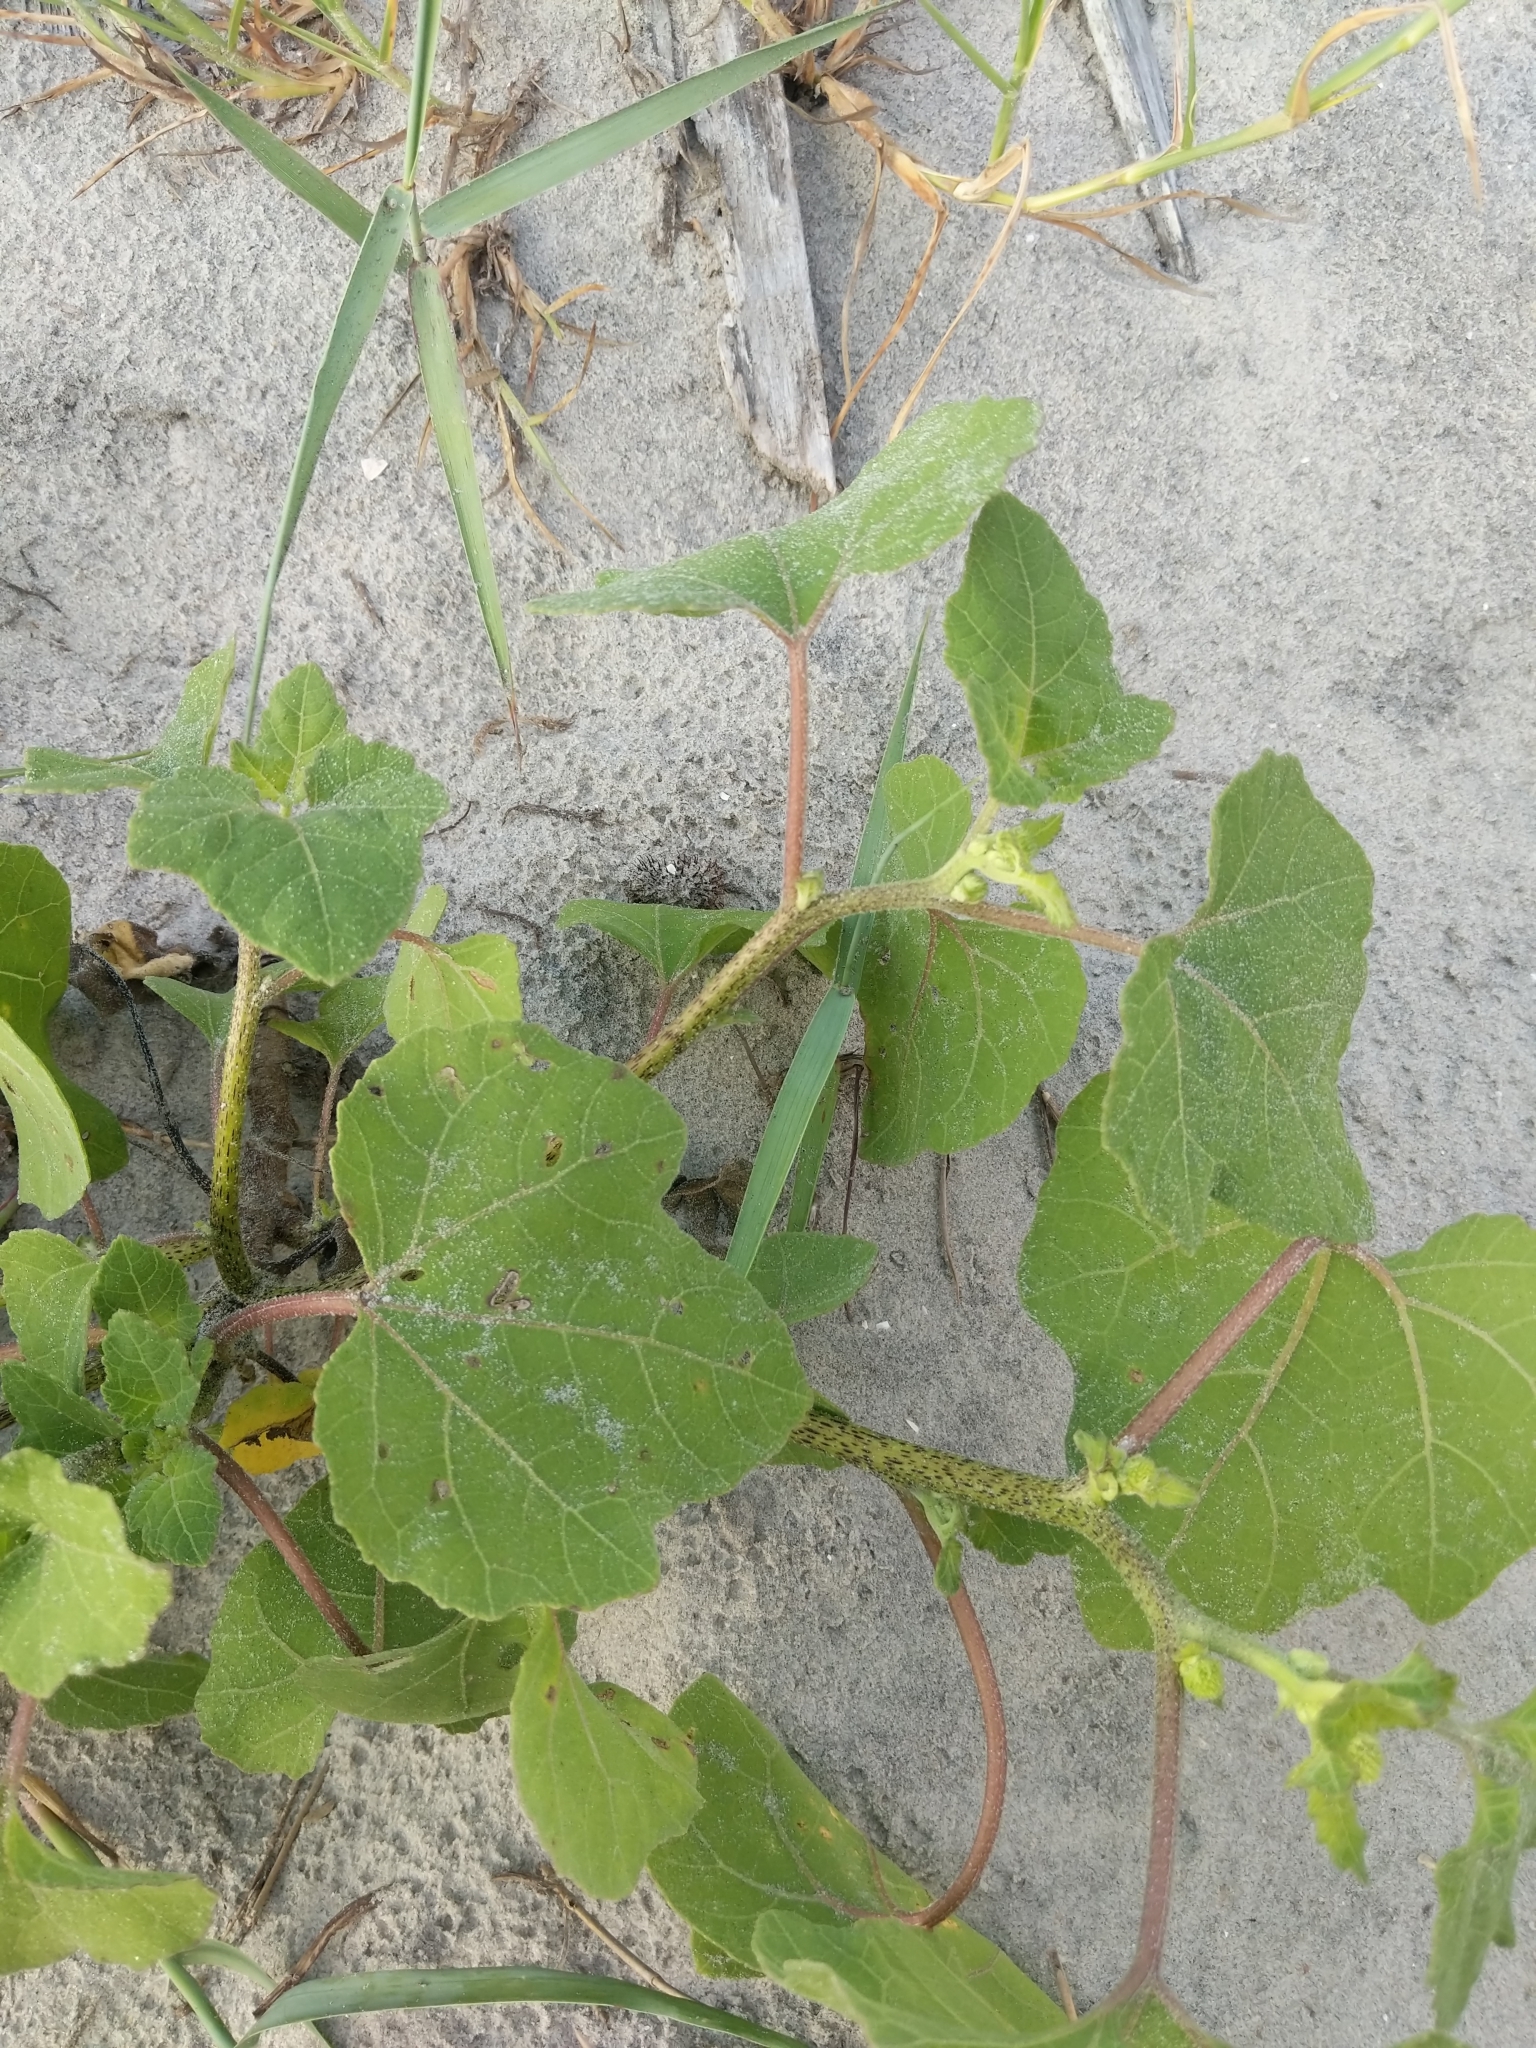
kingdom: Plantae
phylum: Tracheophyta
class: Magnoliopsida
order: Asterales
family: Asteraceae
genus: Xanthium
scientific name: Xanthium strumarium
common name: Rough cocklebur
